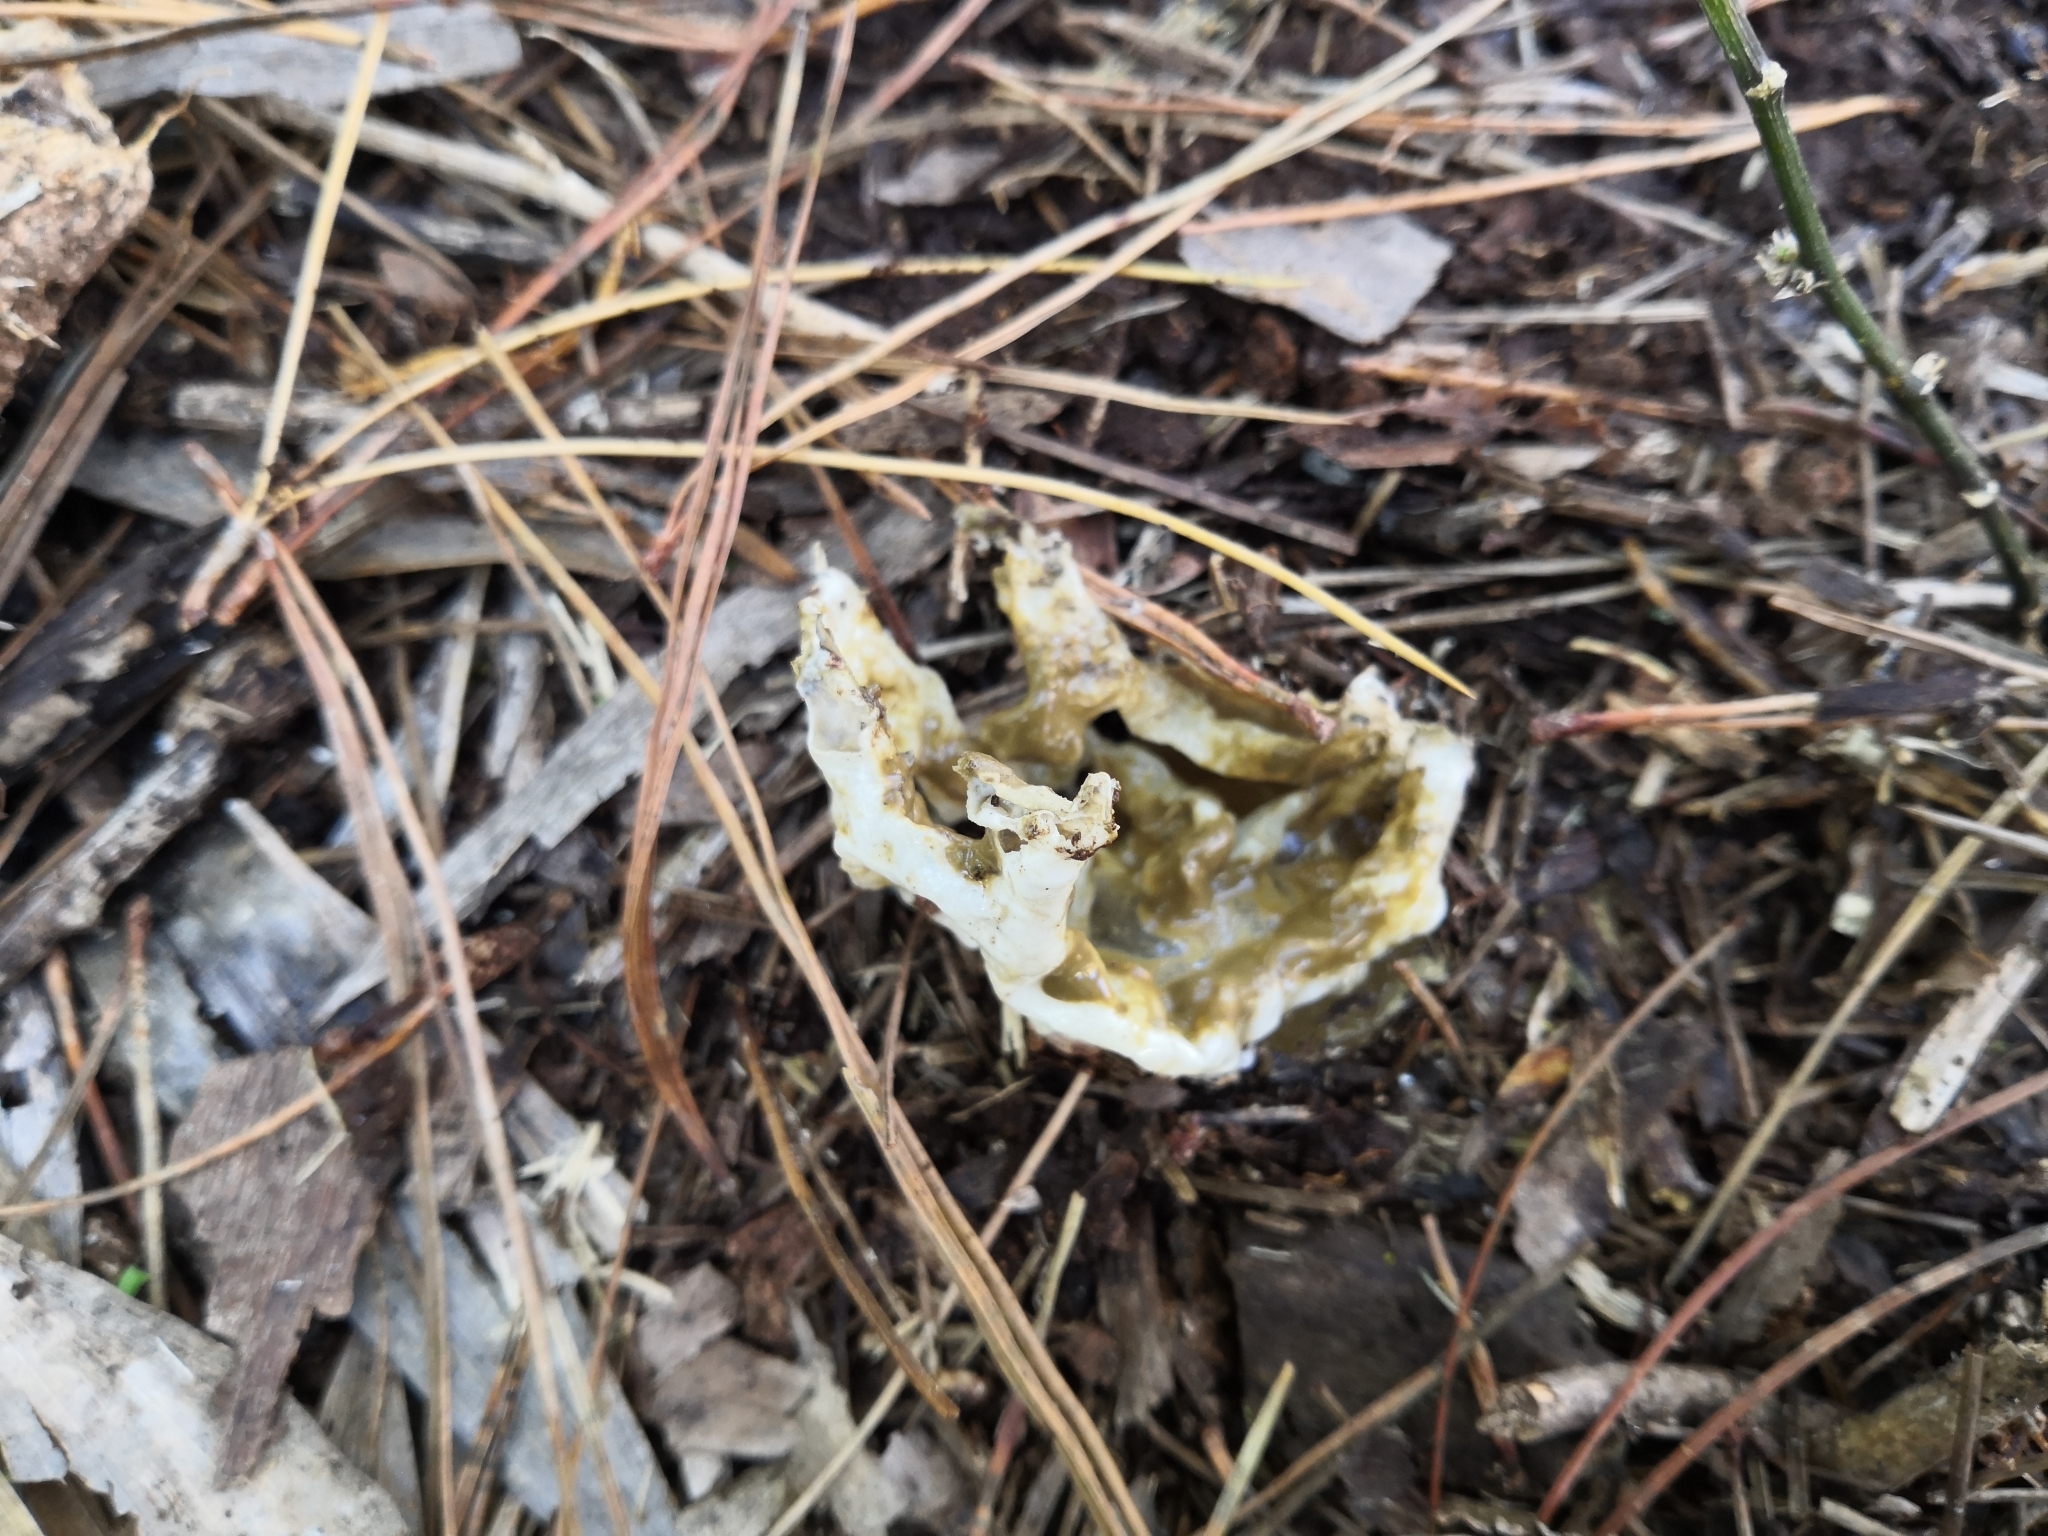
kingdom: Fungi
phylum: Basidiomycota
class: Agaricomycetes
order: Phallales
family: Phallaceae
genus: Ileodictyon
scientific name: Ileodictyon cibarium
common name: Basket fungus
